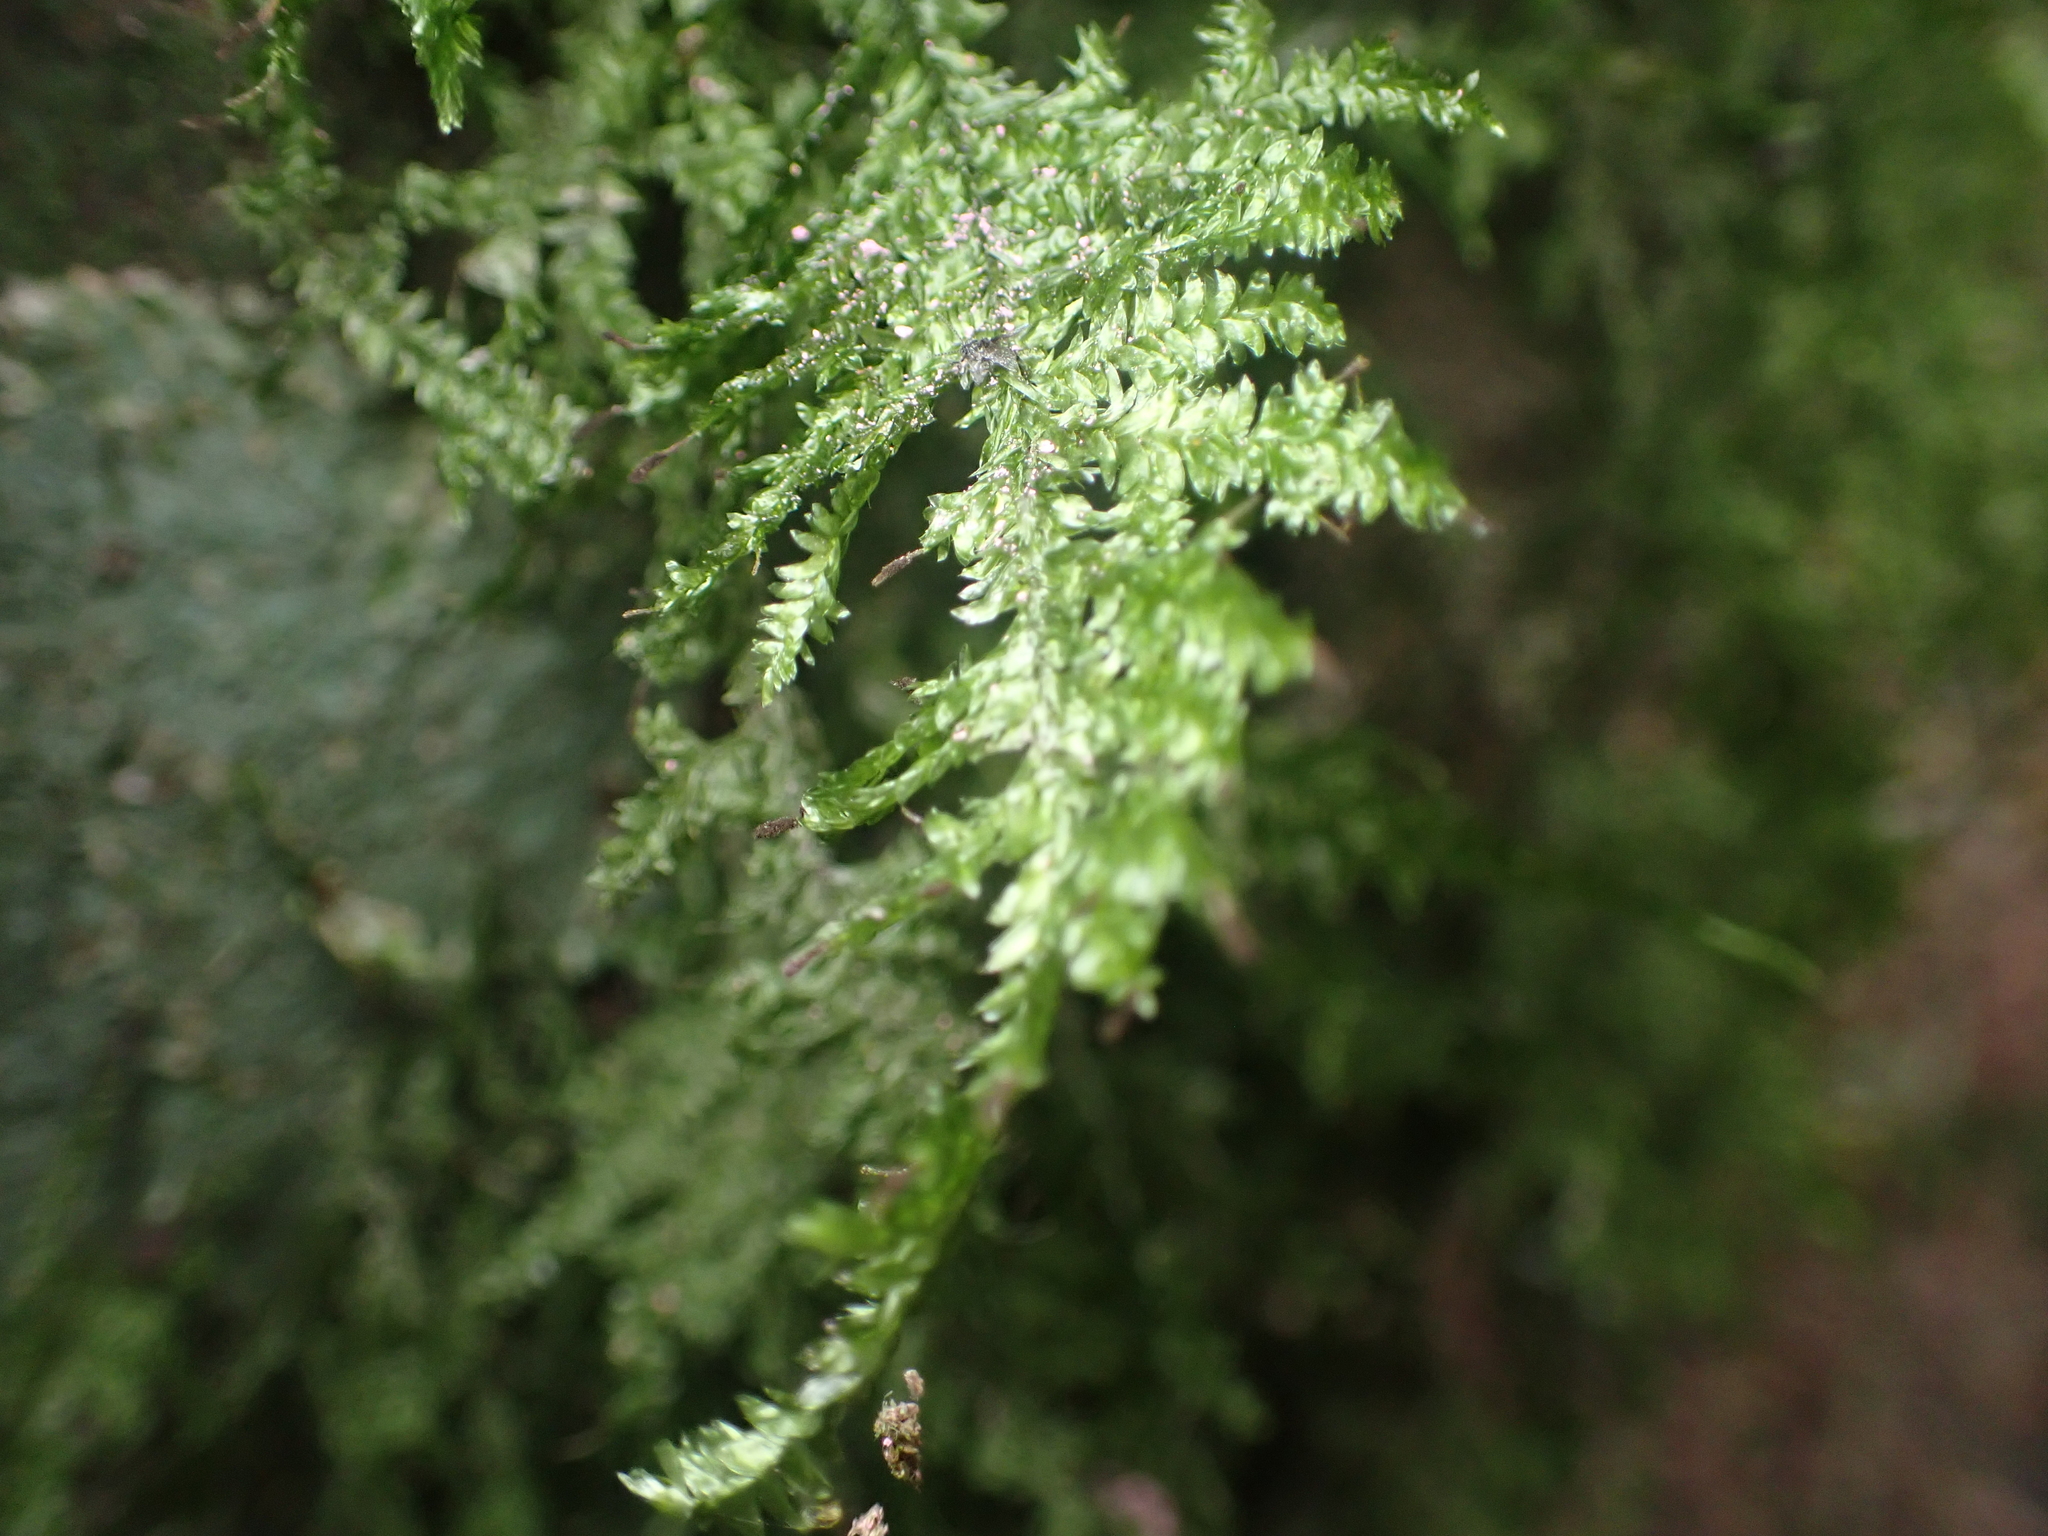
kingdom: Plantae
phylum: Bryophyta
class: Bryopsida
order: Hypnales
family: Trachylomataceae
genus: Trachyloma
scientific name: Trachyloma diversinerve
